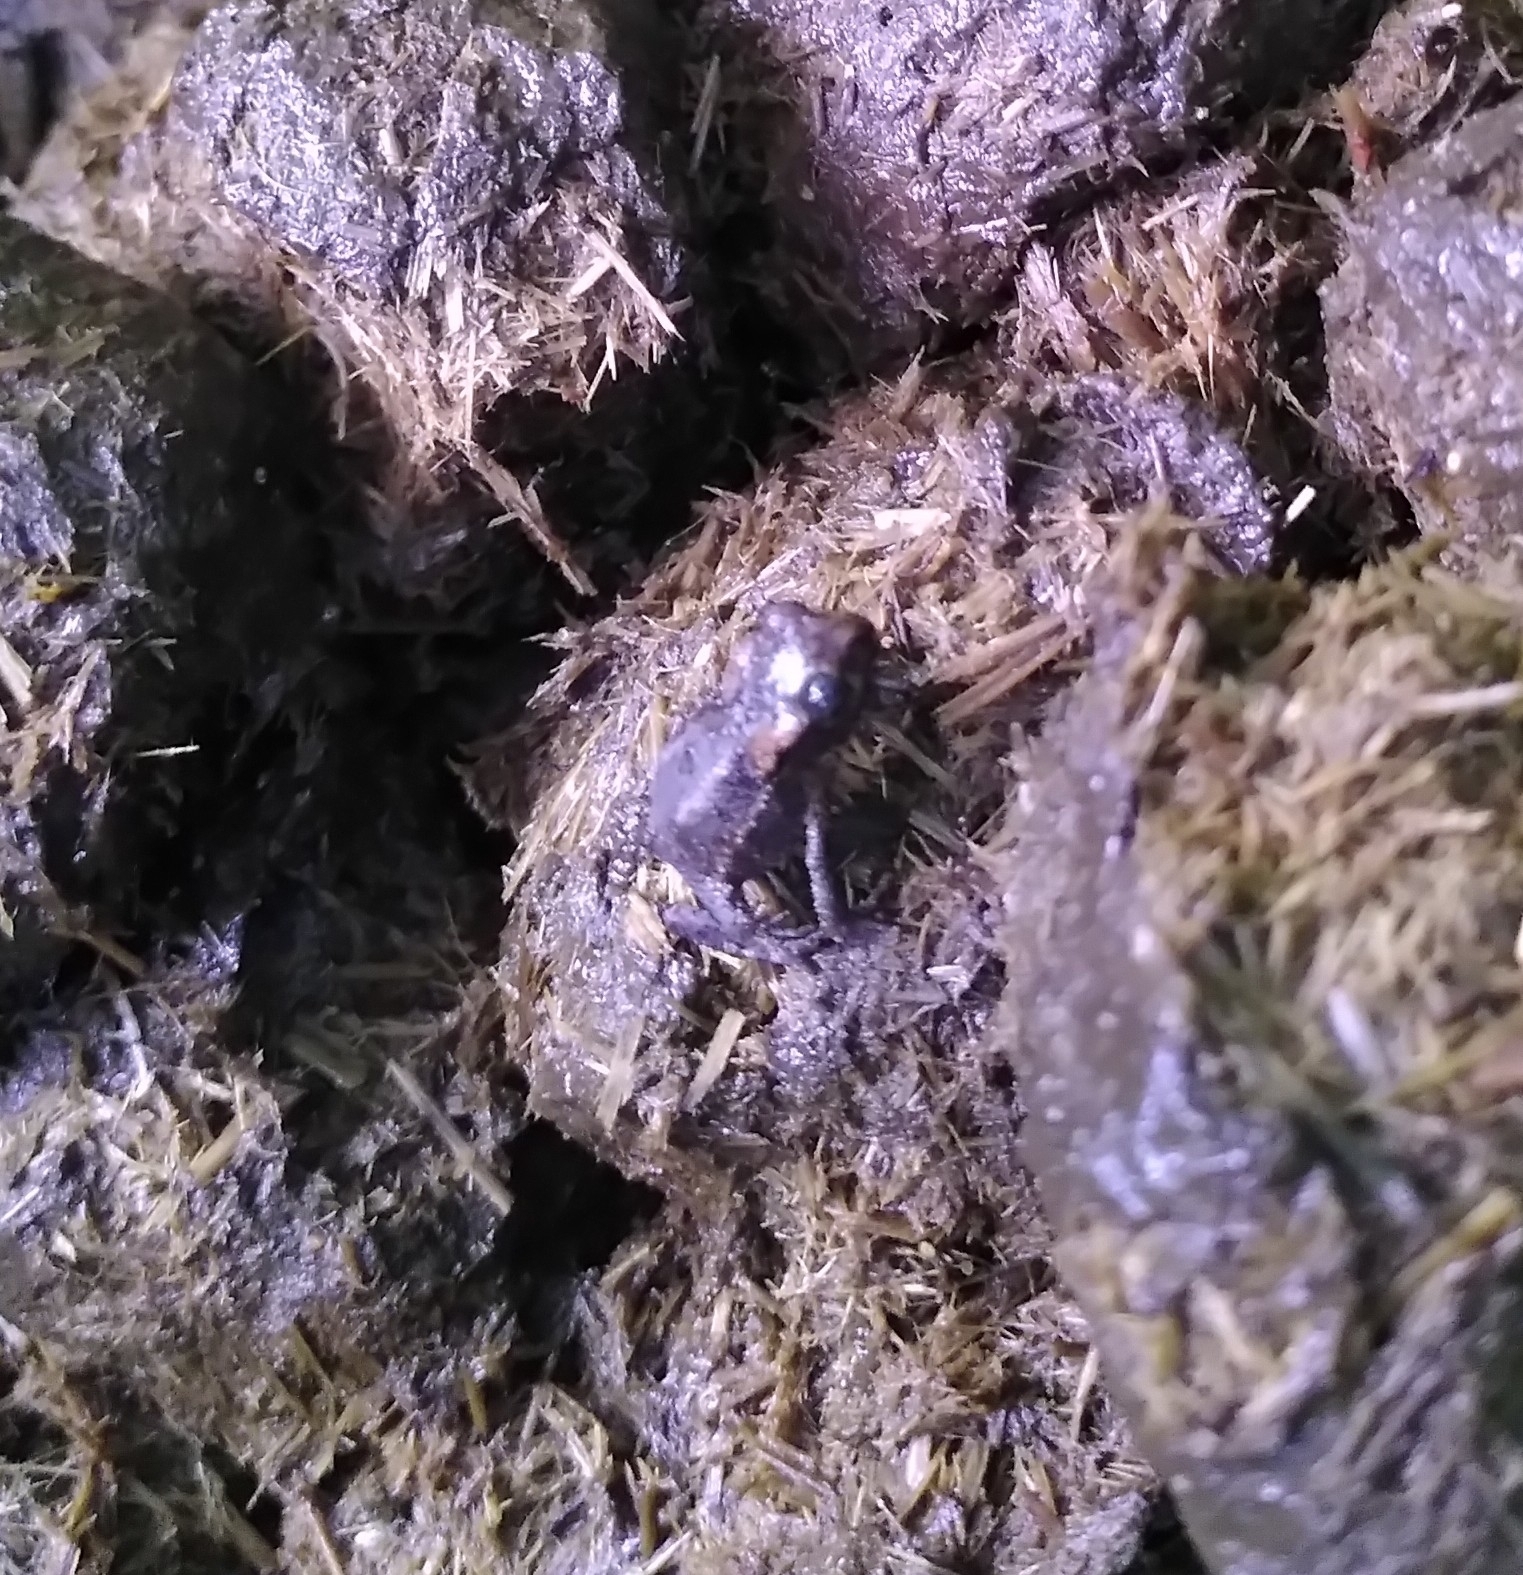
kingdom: Animalia
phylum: Chordata
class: Amphibia
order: Anura
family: Bufonidae
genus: Bufo
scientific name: Bufo bufo
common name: Common toad
